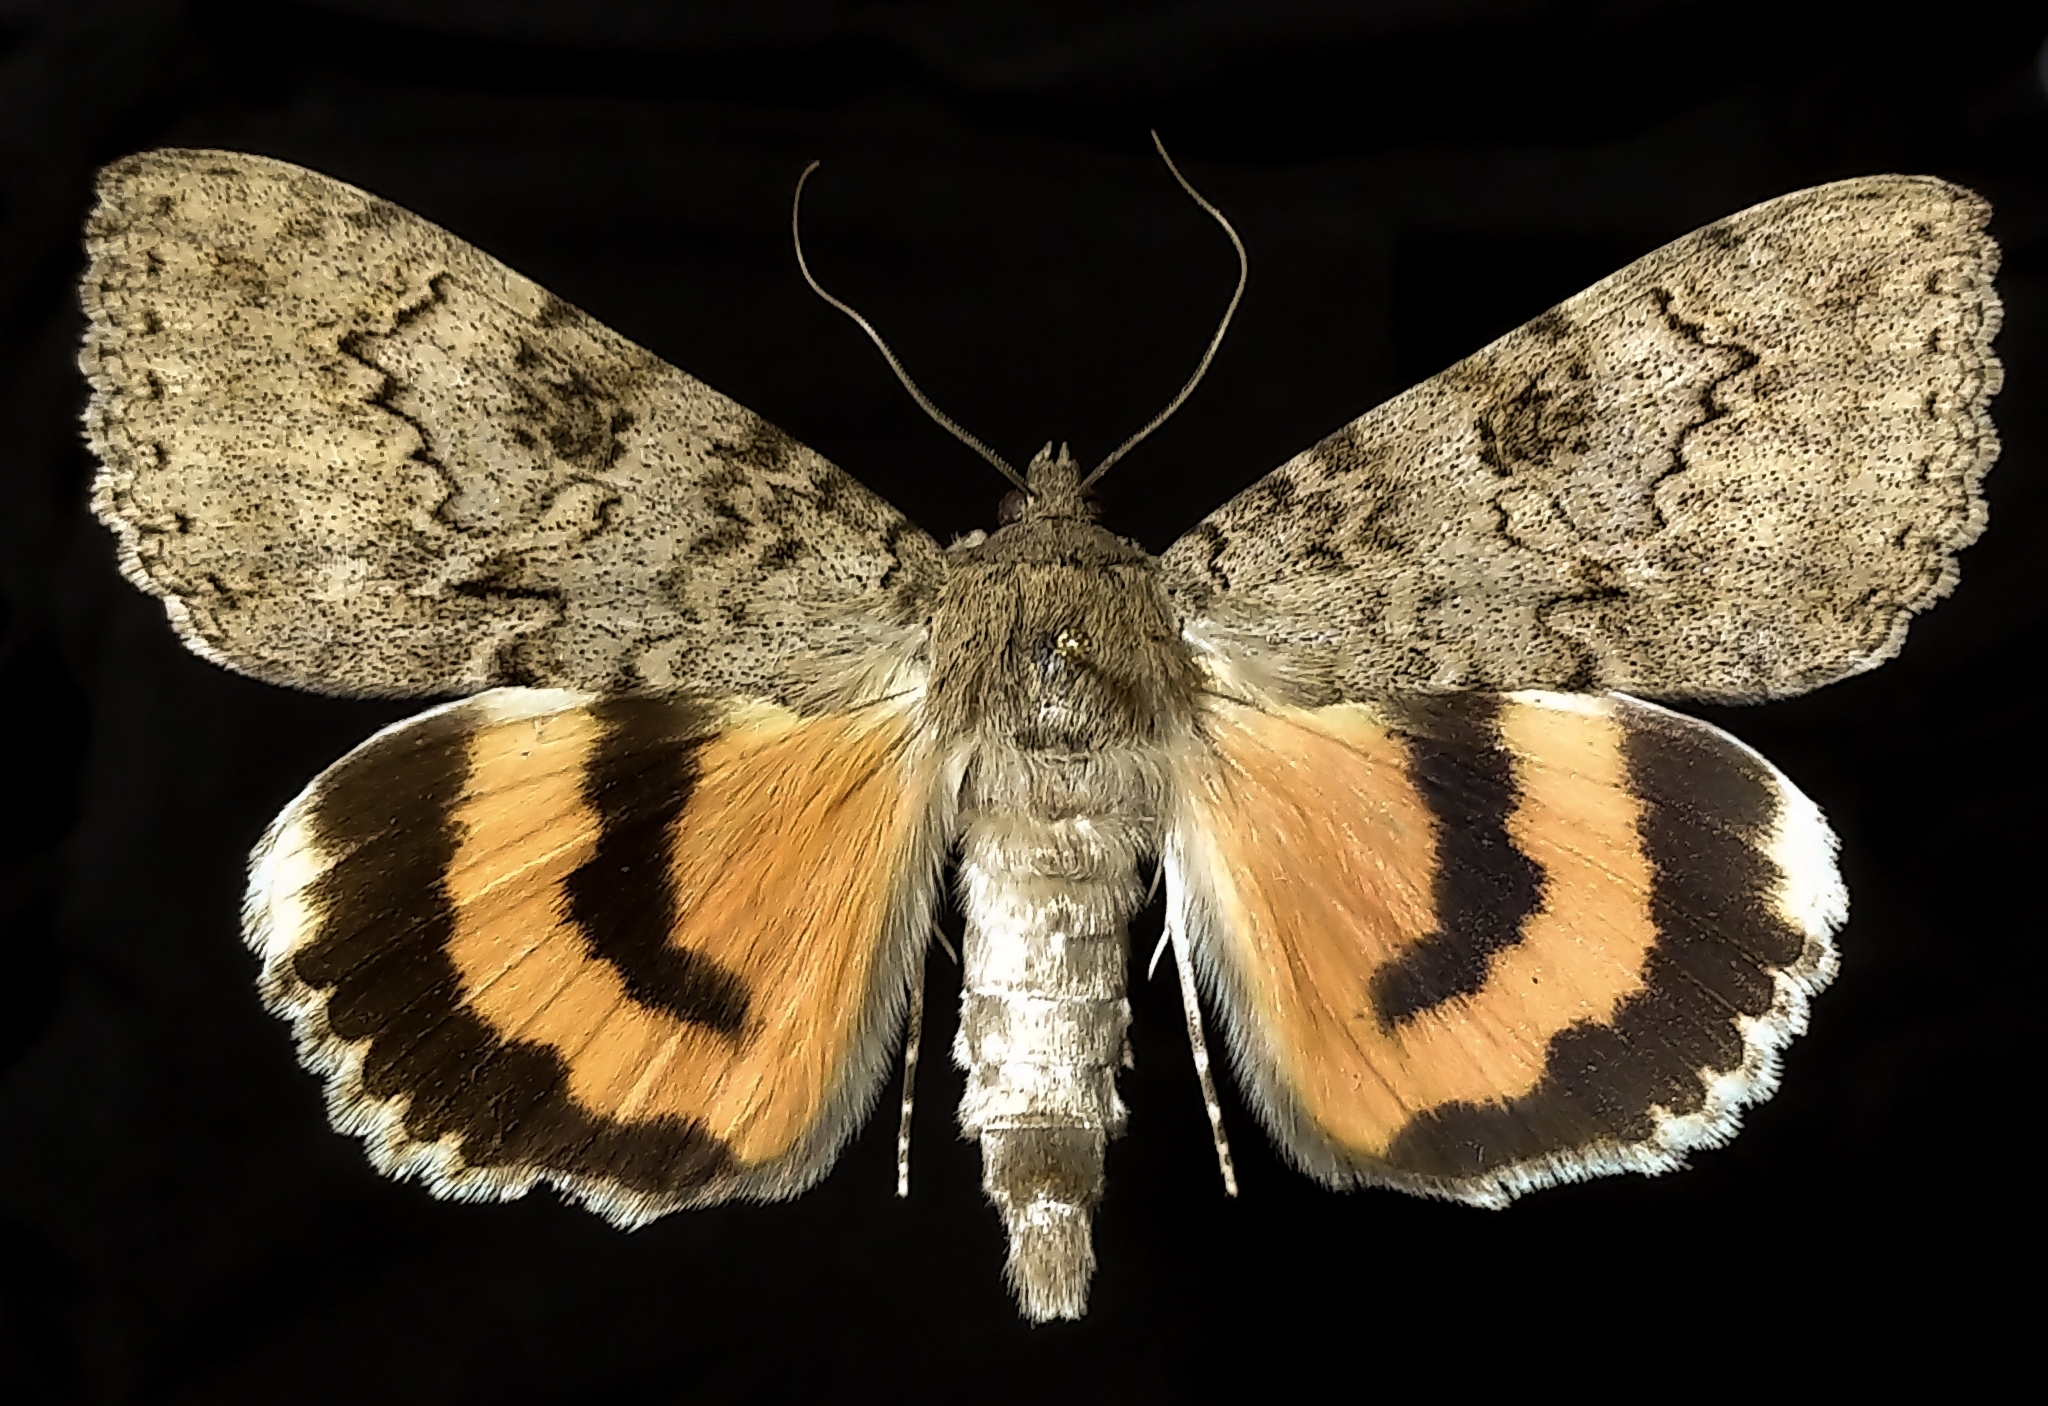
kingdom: Animalia
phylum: Arthropoda
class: Insecta
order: Lepidoptera
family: Erebidae
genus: Catocala
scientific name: Catocala luciana
